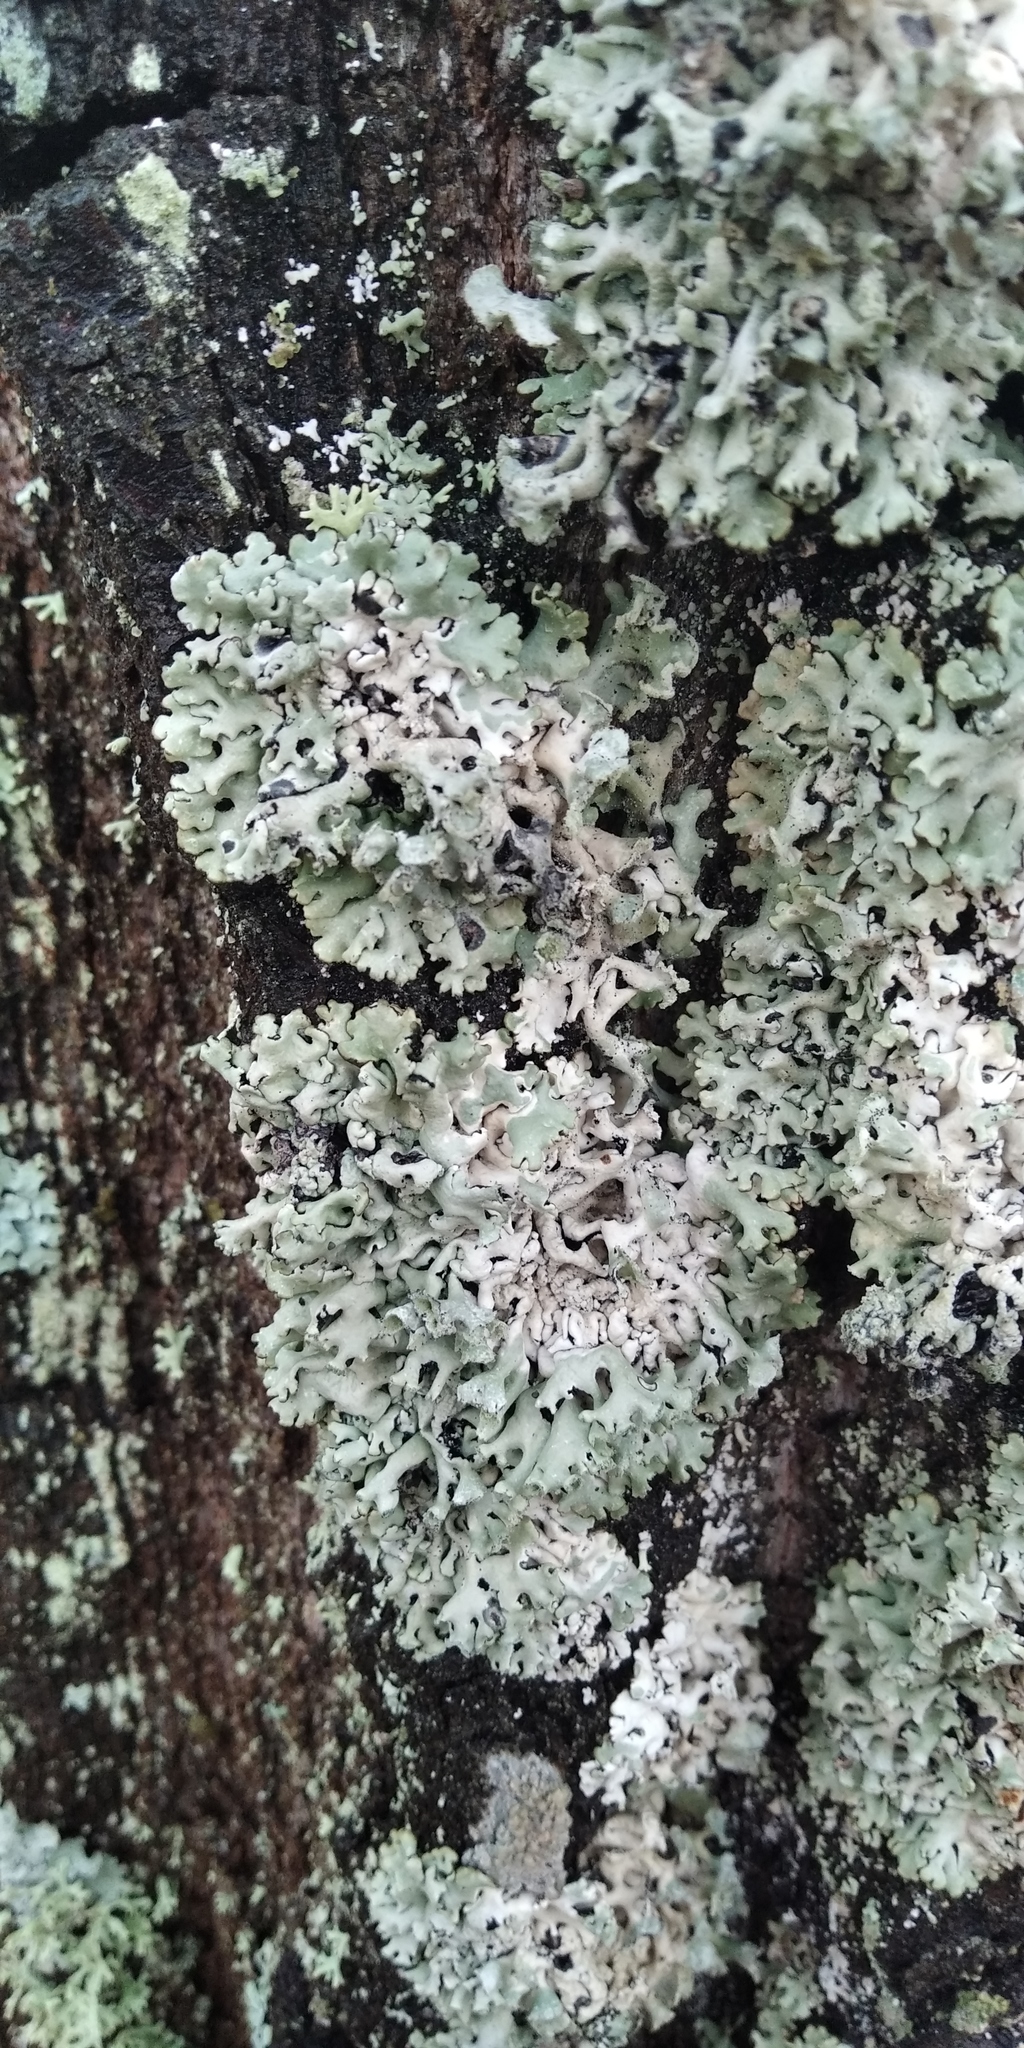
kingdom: Fungi
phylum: Ascomycota
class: Lecanoromycetes
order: Lecanorales
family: Parmeliaceae
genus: Hypogymnia
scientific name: Hypogymnia physodes
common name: Dark crottle
